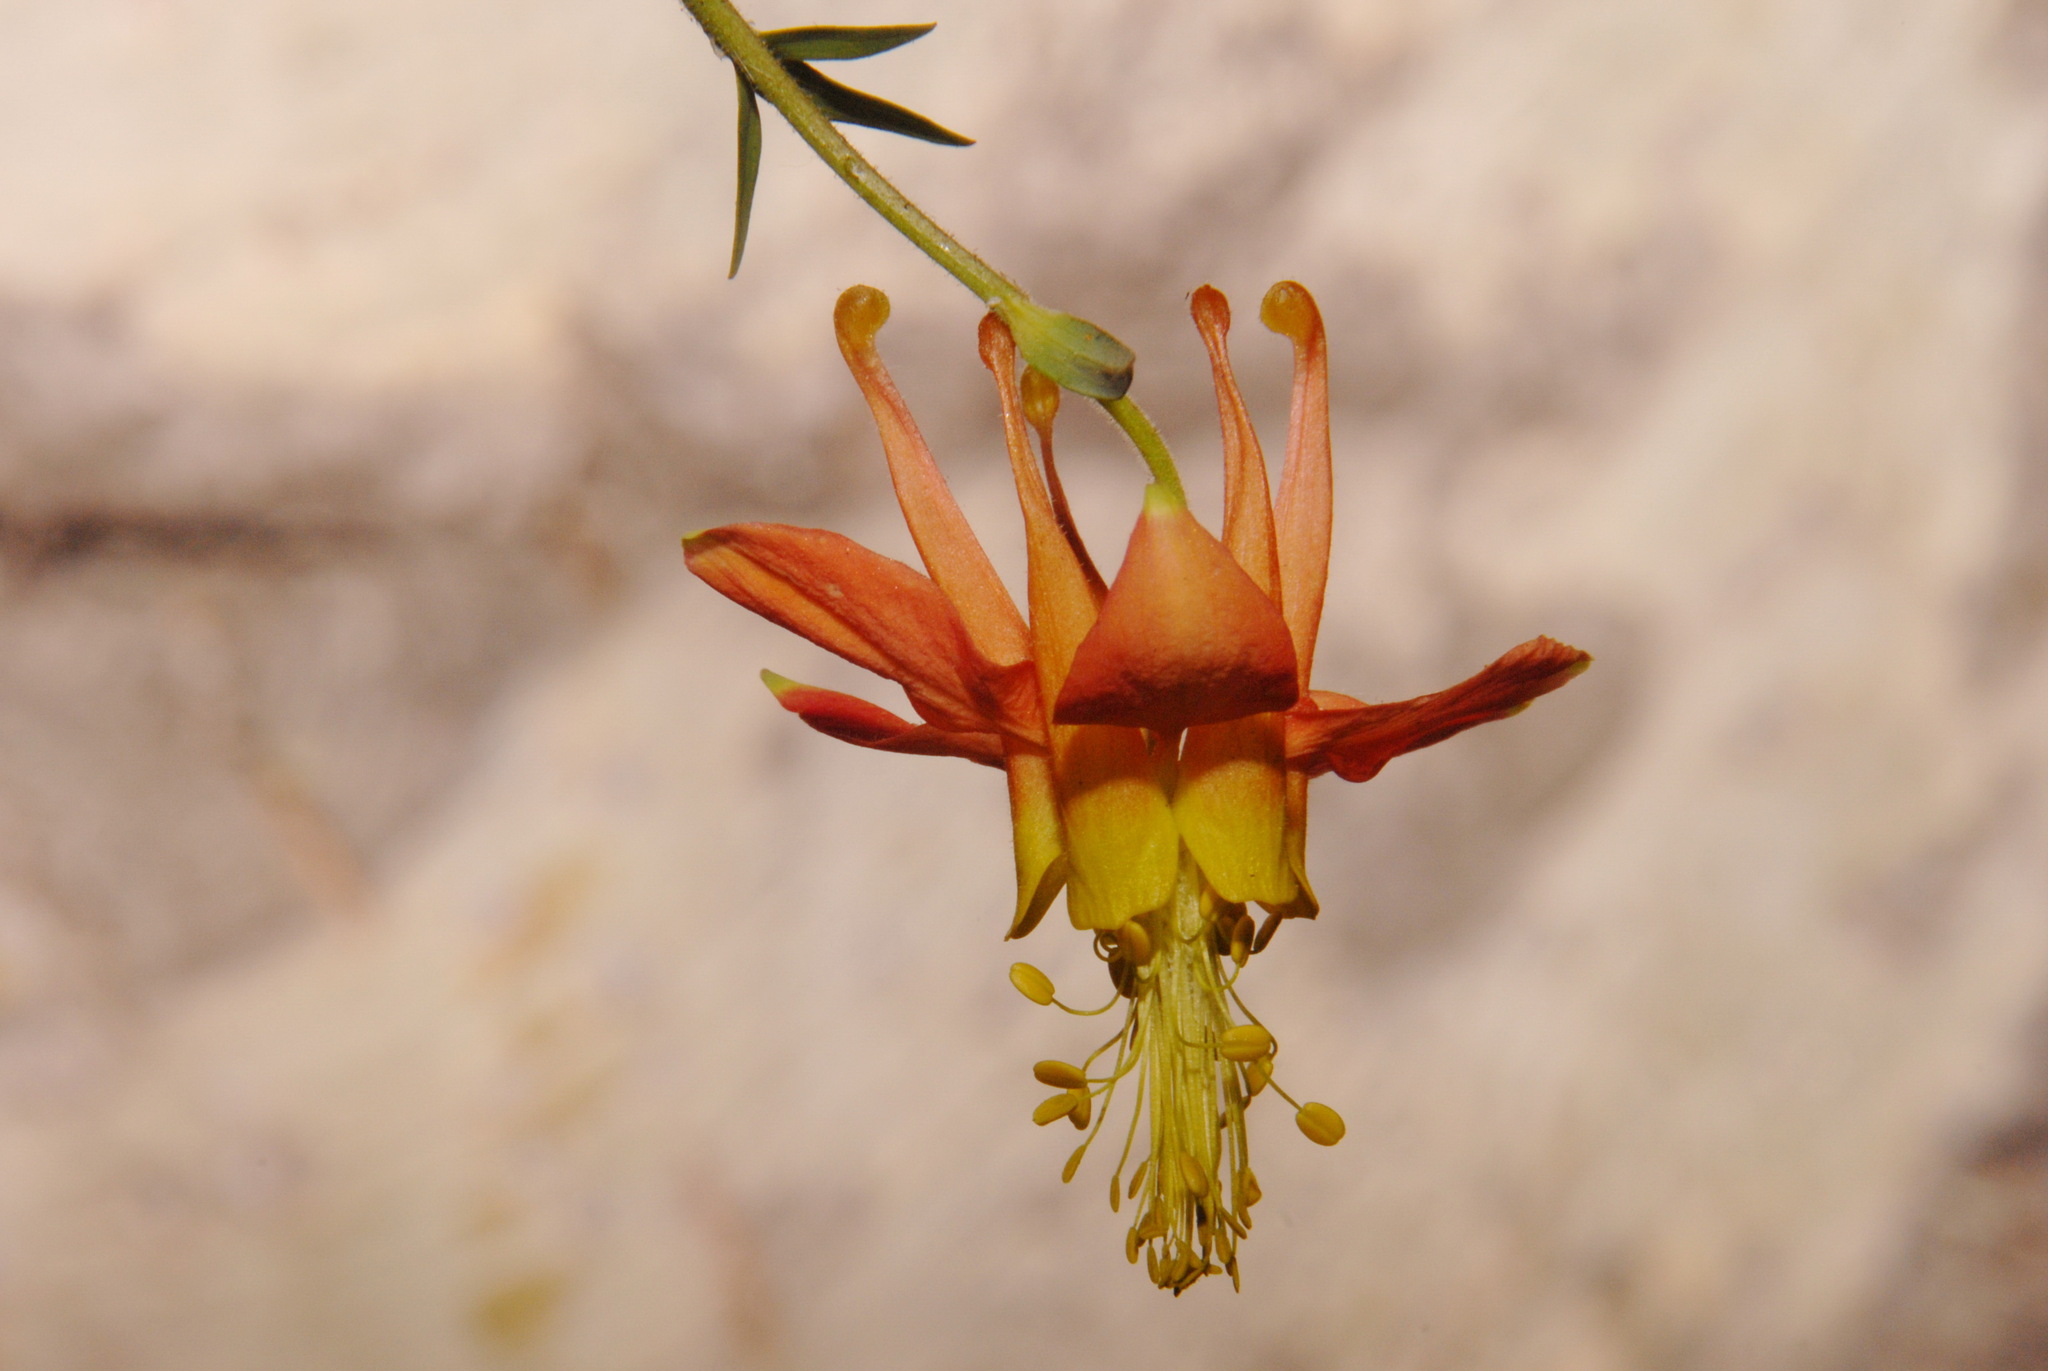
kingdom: Plantae
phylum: Tracheophyta
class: Magnoliopsida
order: Ranunculales
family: Ranunculaceae
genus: Aquilegia
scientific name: Aquilegia formosa
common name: Sitka columbine
